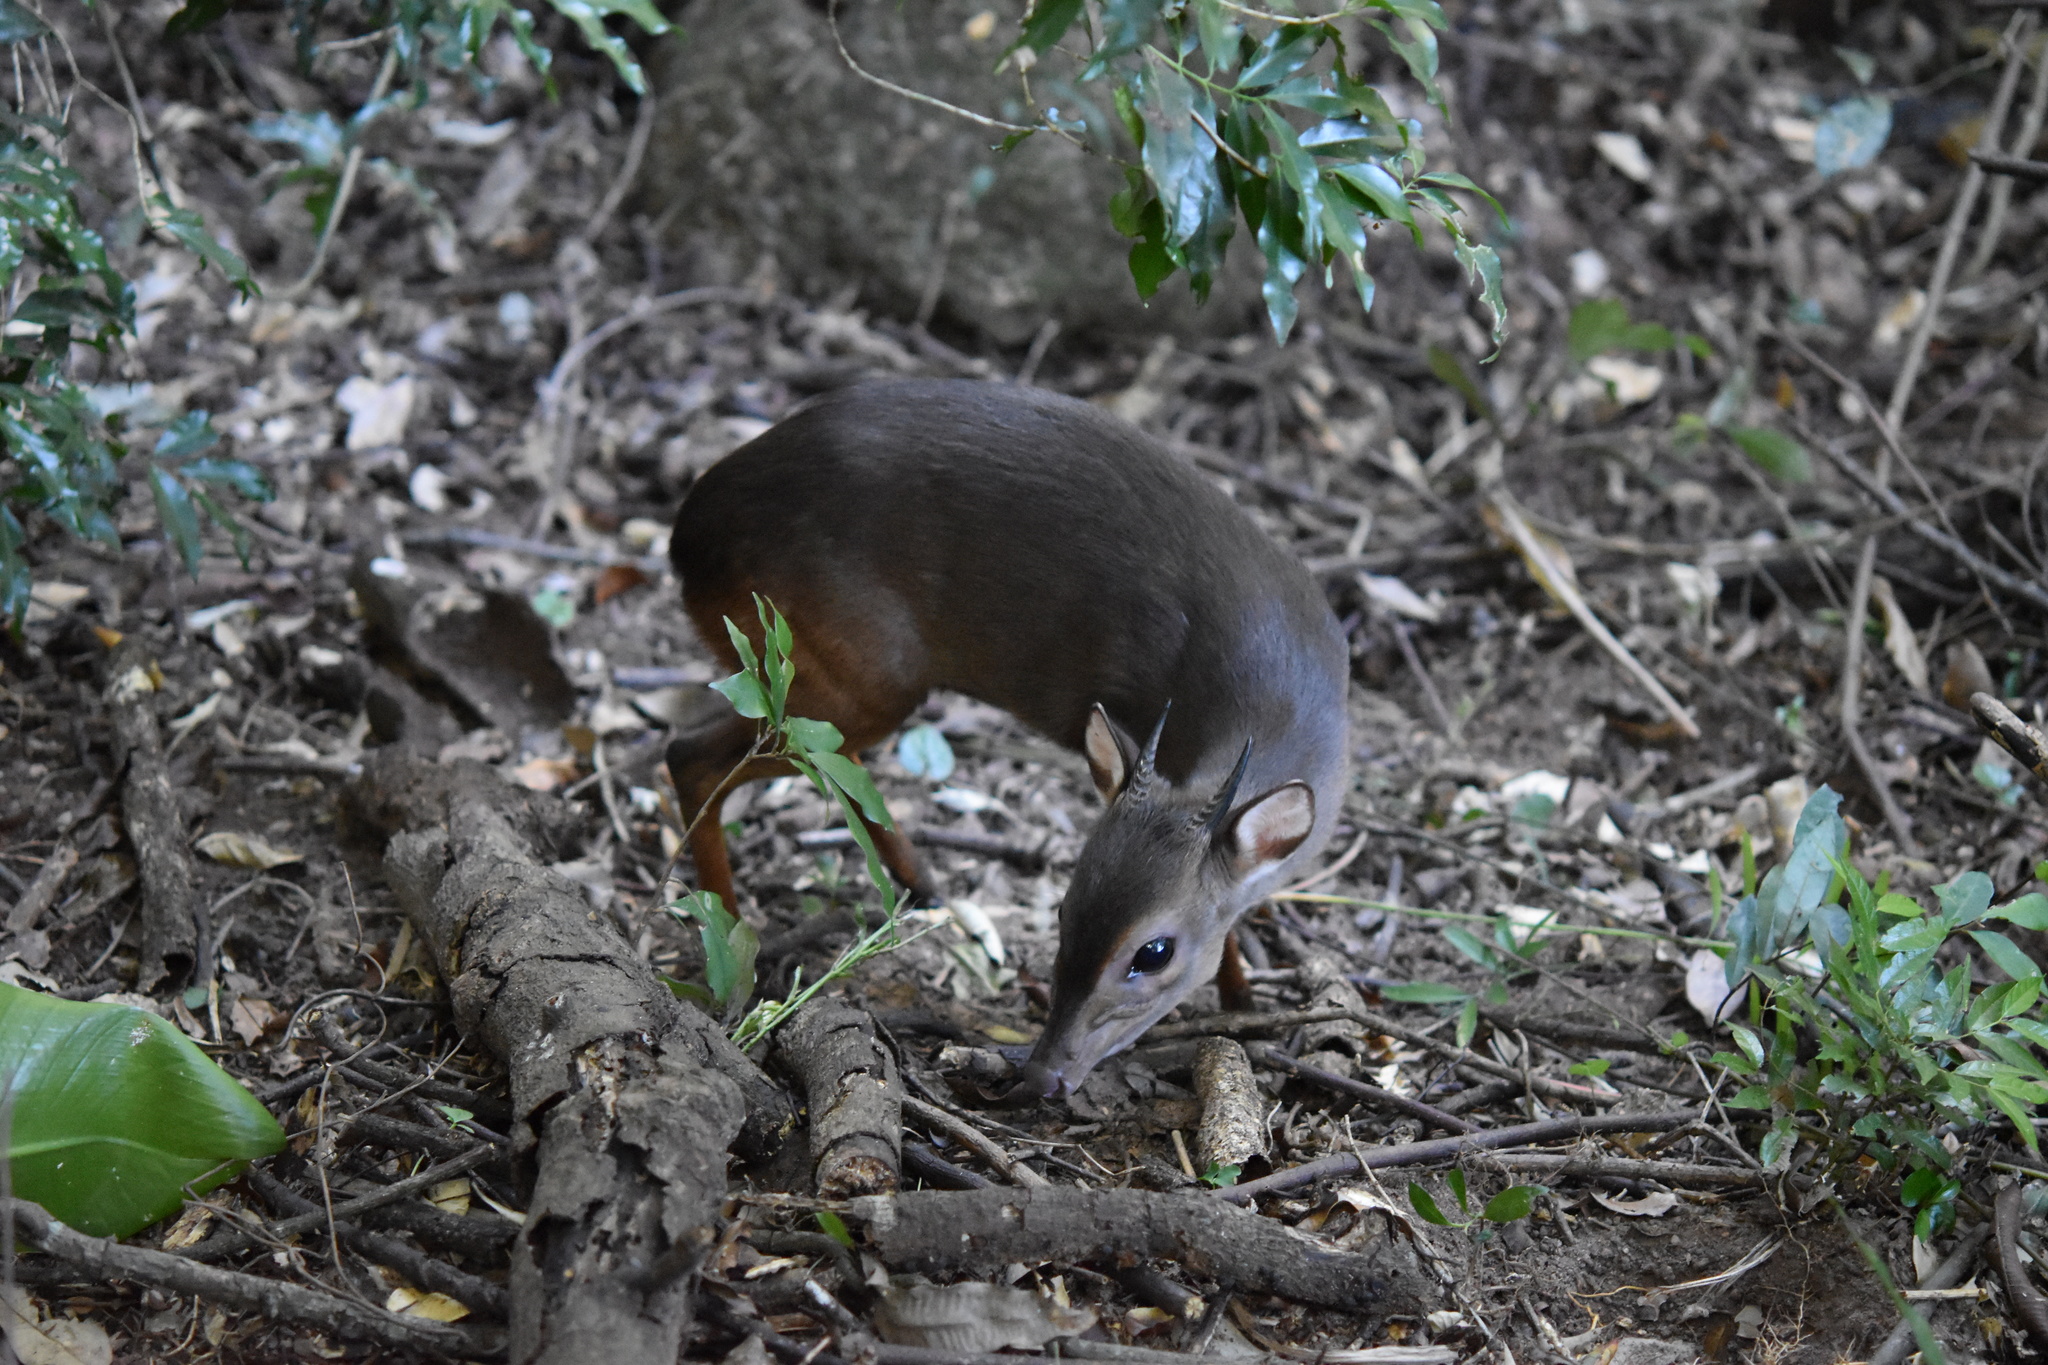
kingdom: Animalia
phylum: Chordata
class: Mammalia
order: Artiodactyla
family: Bovidae
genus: Philantomba
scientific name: Philantomba monticola
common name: Blue duiker
